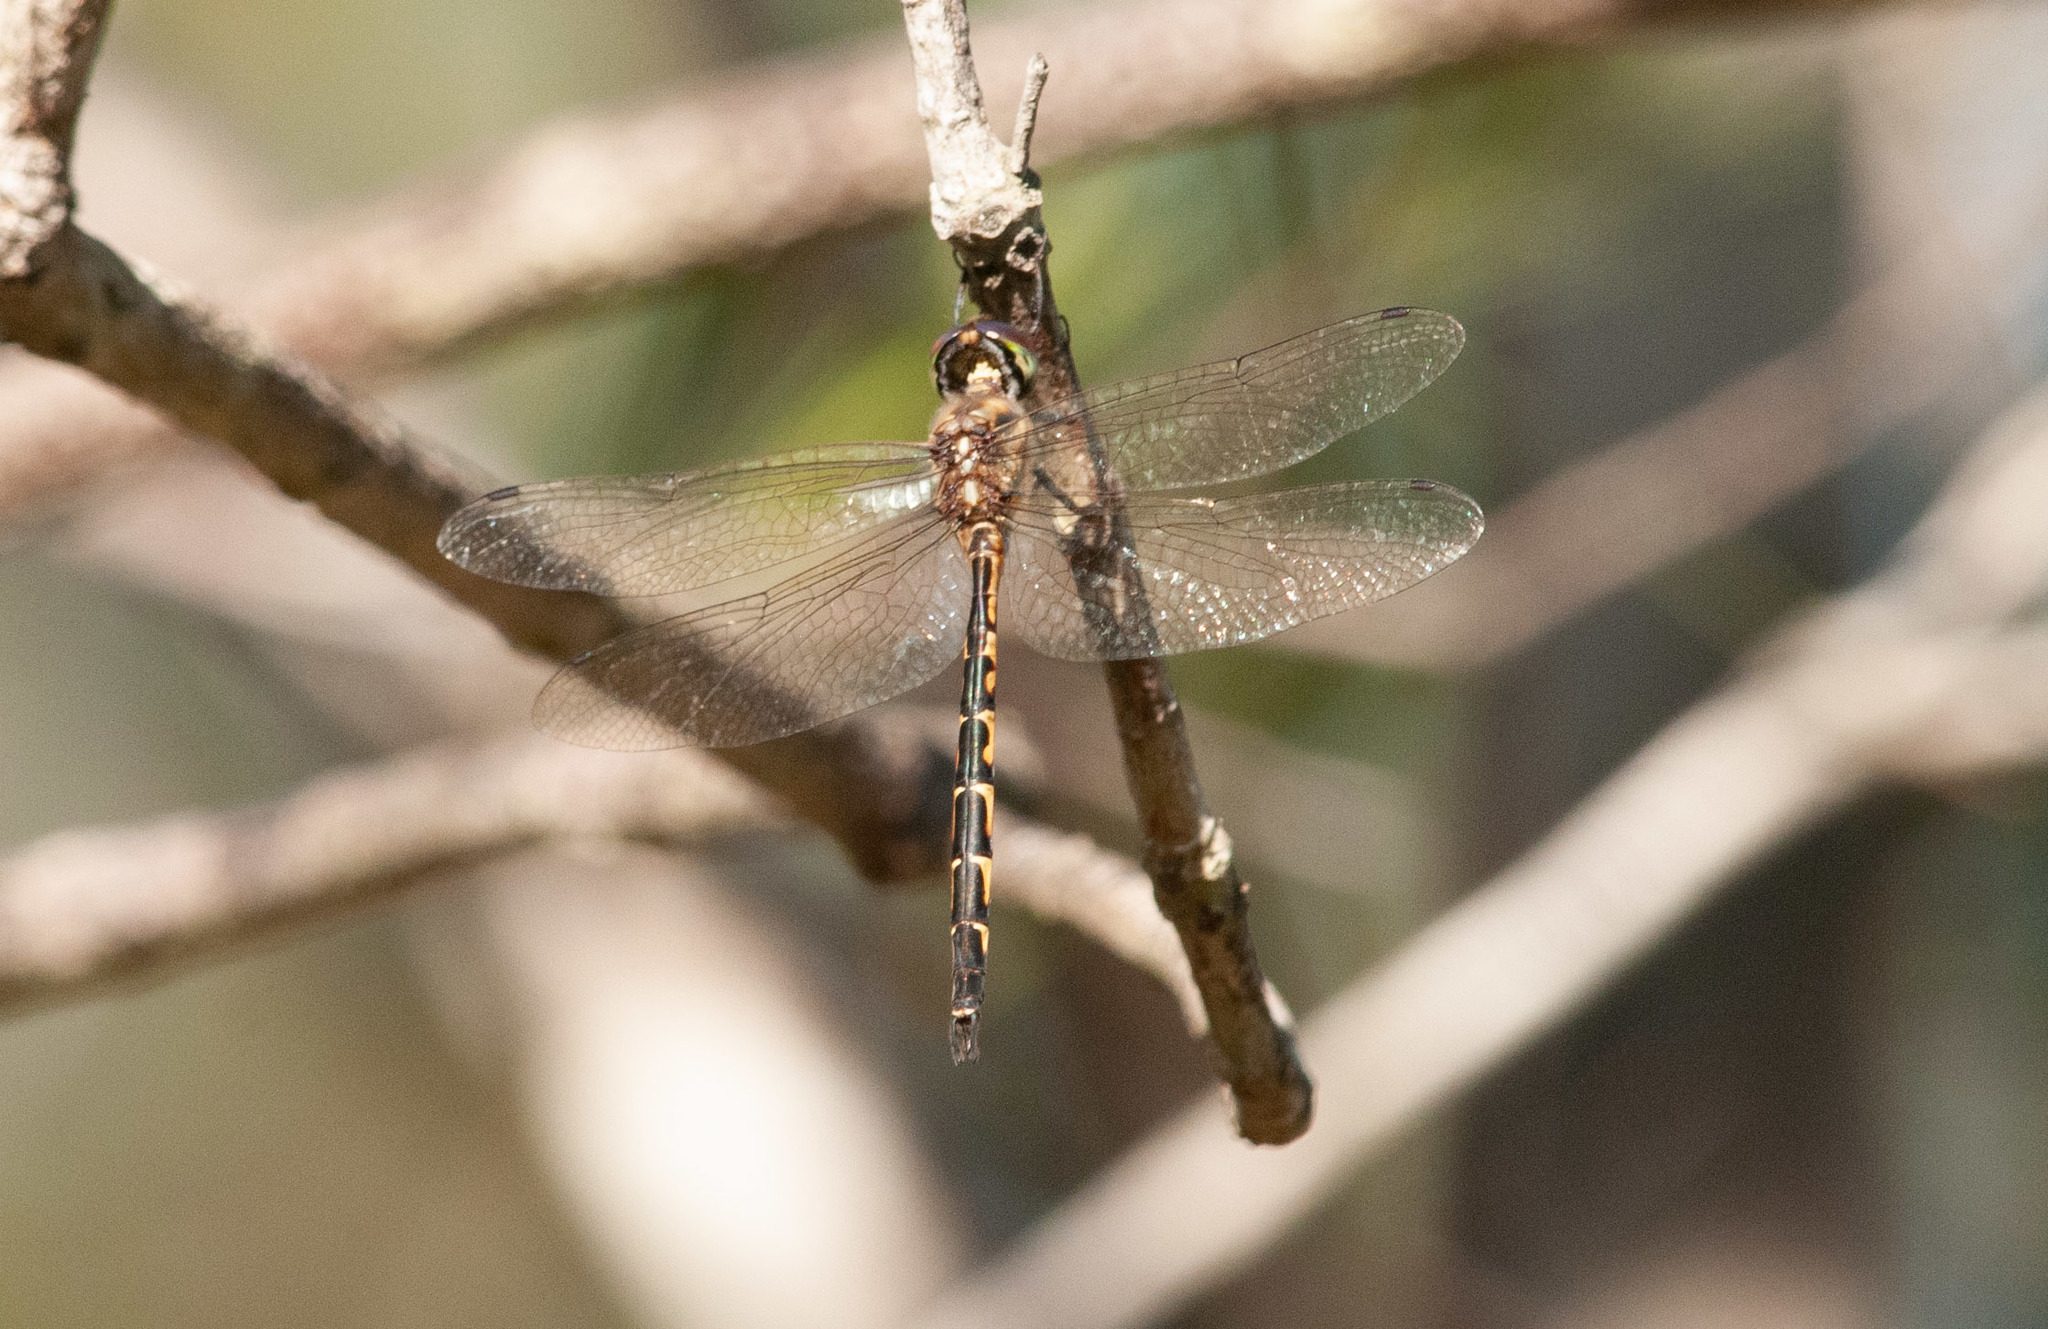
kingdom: Animalia
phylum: Arthropoda
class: Insecta
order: Odonata
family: Corduliidae
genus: Hemicordulia
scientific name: Hemicordulia australiae
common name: Sentry dragonfly
